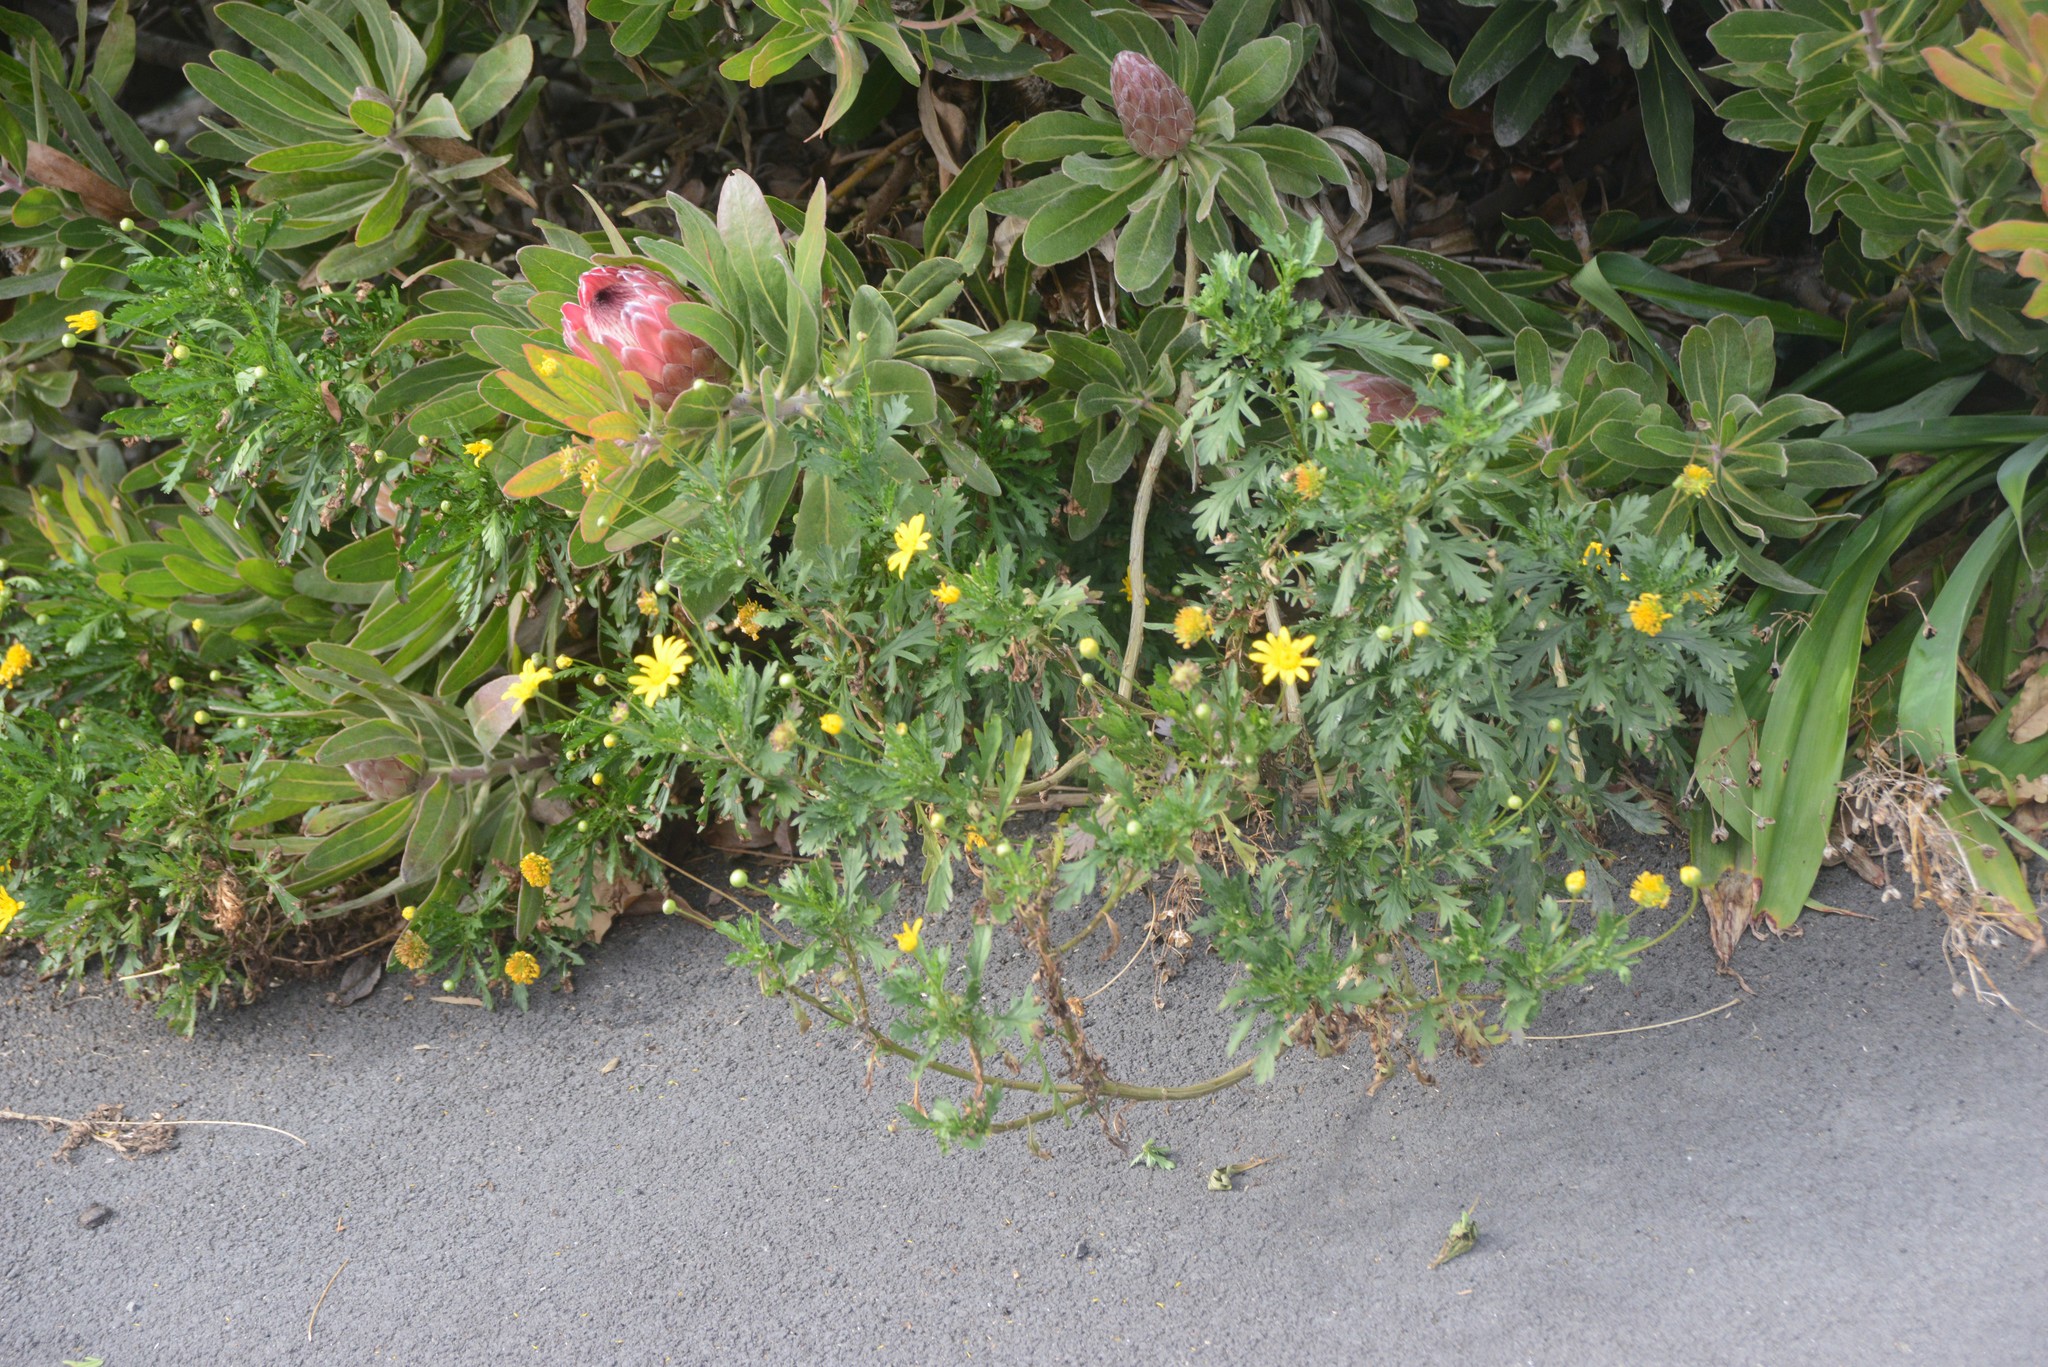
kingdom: Plantae
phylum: Tracheophyta
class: Magnoliopsida
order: Asterales
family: Asteraceae
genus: Euryops
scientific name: Euryops chrysanthemoides
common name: Bull's eye
